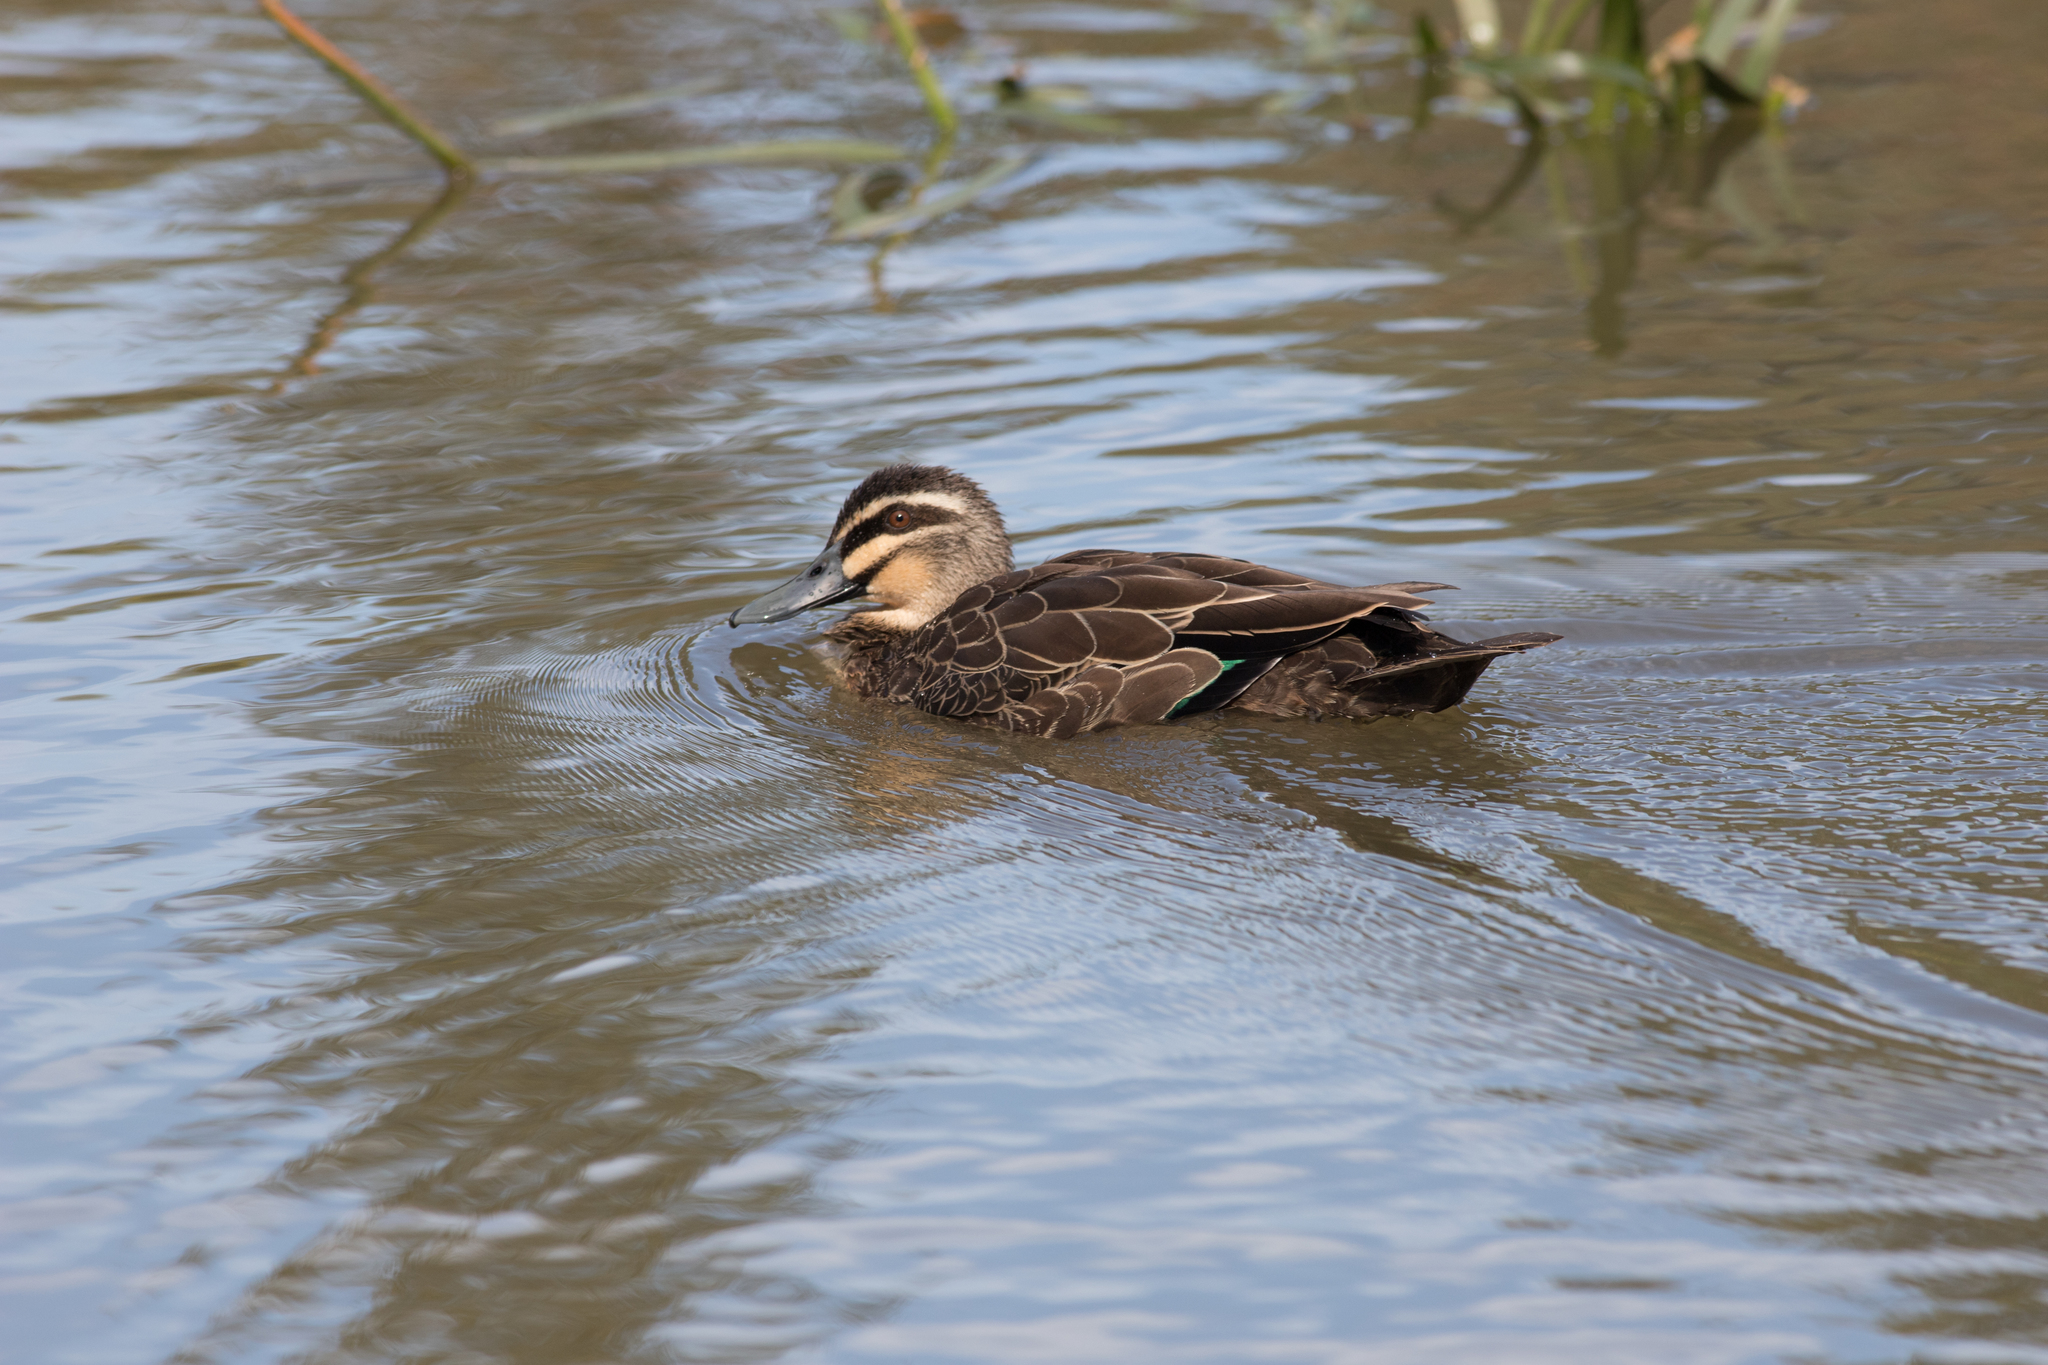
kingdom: Animalia
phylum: Chordata
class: Aves
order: Anseriformes
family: Anatidae
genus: Anas
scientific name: Anas superciliosa
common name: Pacific black duck
